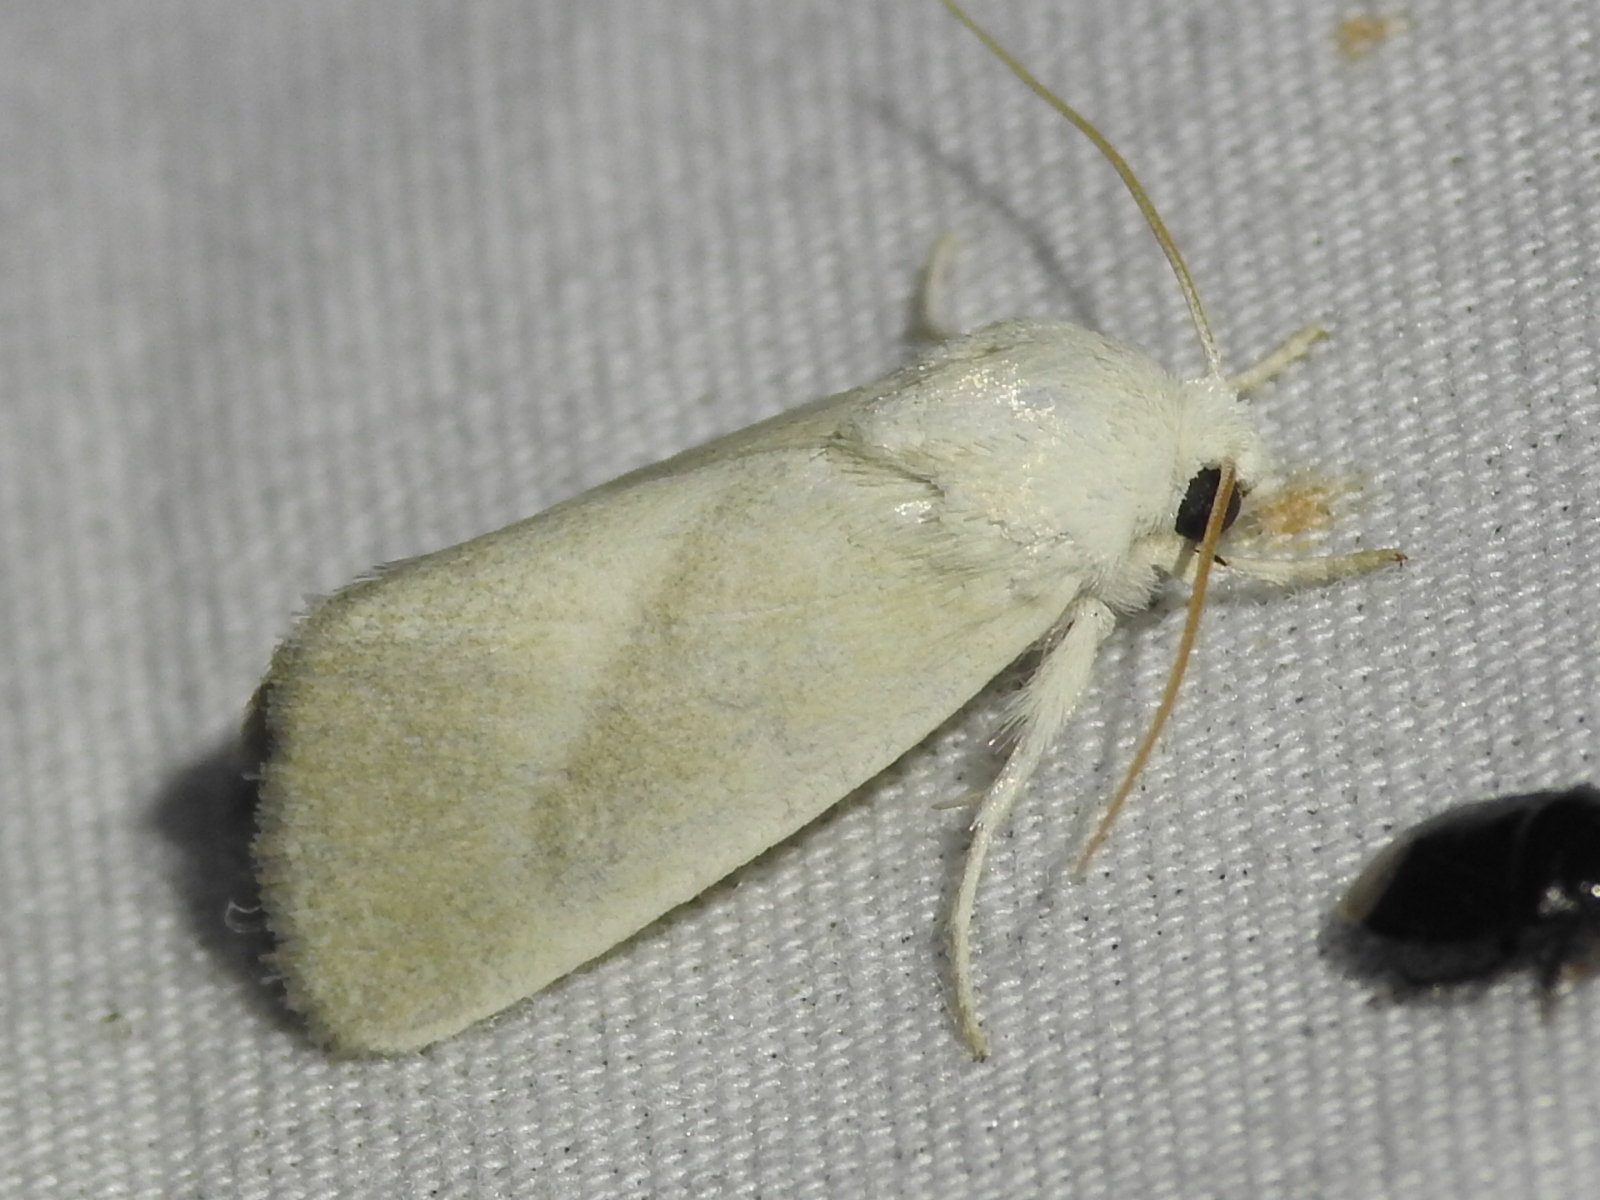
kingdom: Animalia
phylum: Arthropoda
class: Insecta
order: Lepidoptera
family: Noctuidae
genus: Leucocnemis
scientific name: Leucocnemis nivalis
